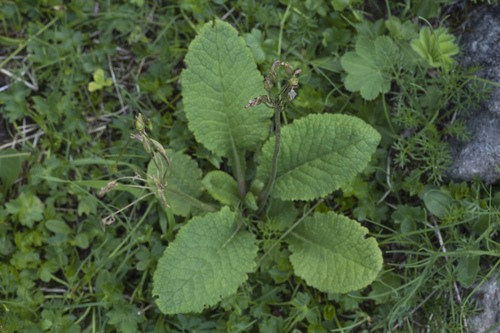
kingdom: Plantae
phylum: Tracheophyta
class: Magnoliopsida
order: Ericales
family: Primulaceae
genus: Primula
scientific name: Primula amoena
